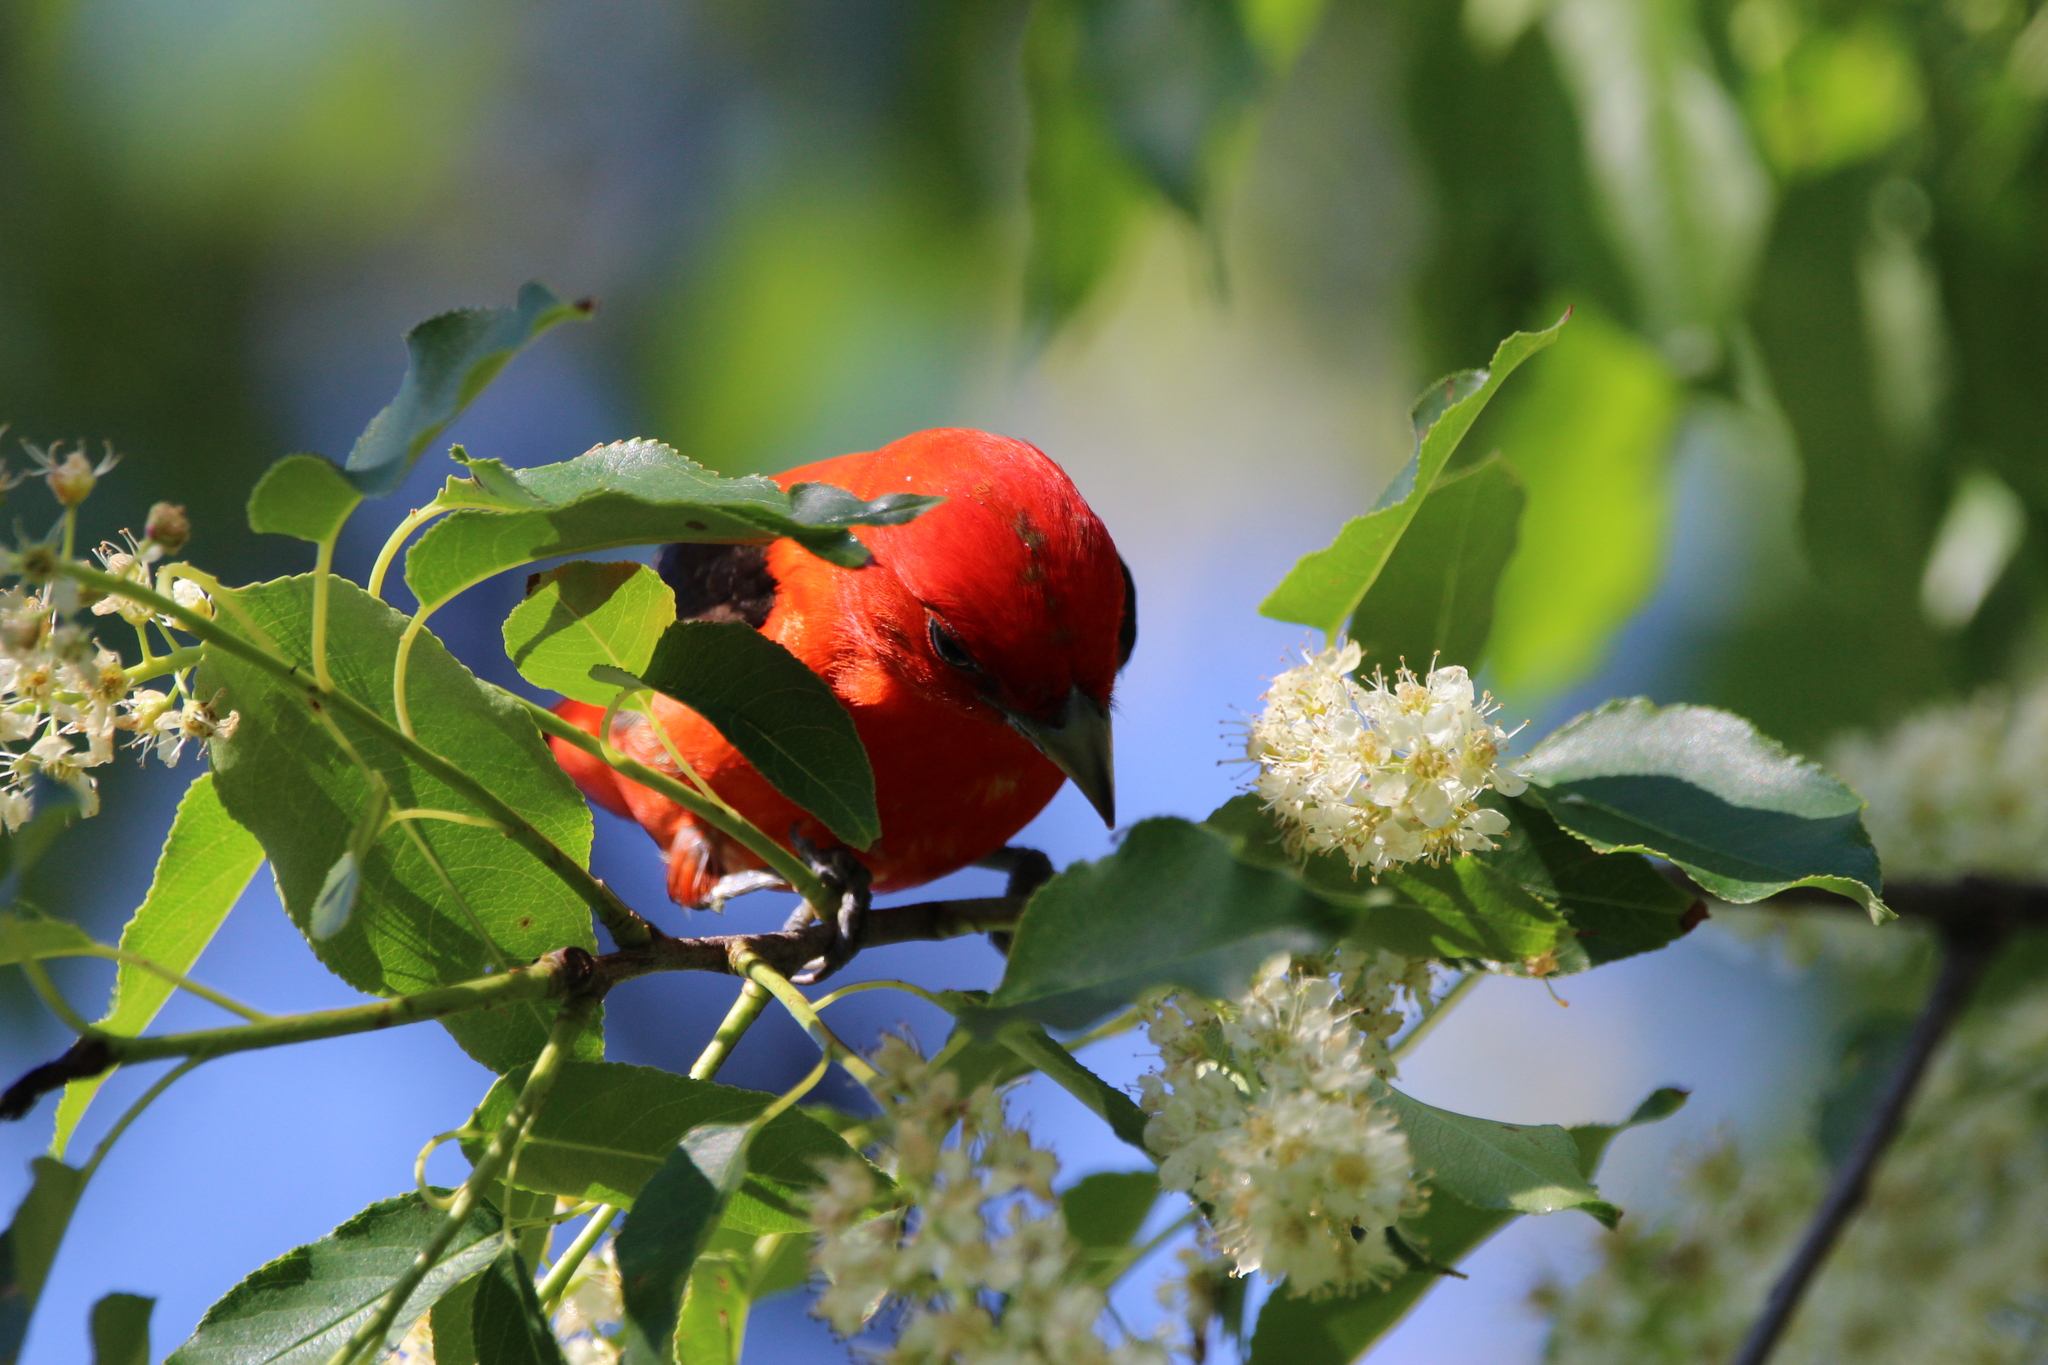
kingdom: Animalia
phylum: Chordata
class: Aves
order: Passeriformes
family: Cardinalidae
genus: Piranga
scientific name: Piranga olivacea
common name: Scarlet tanager
